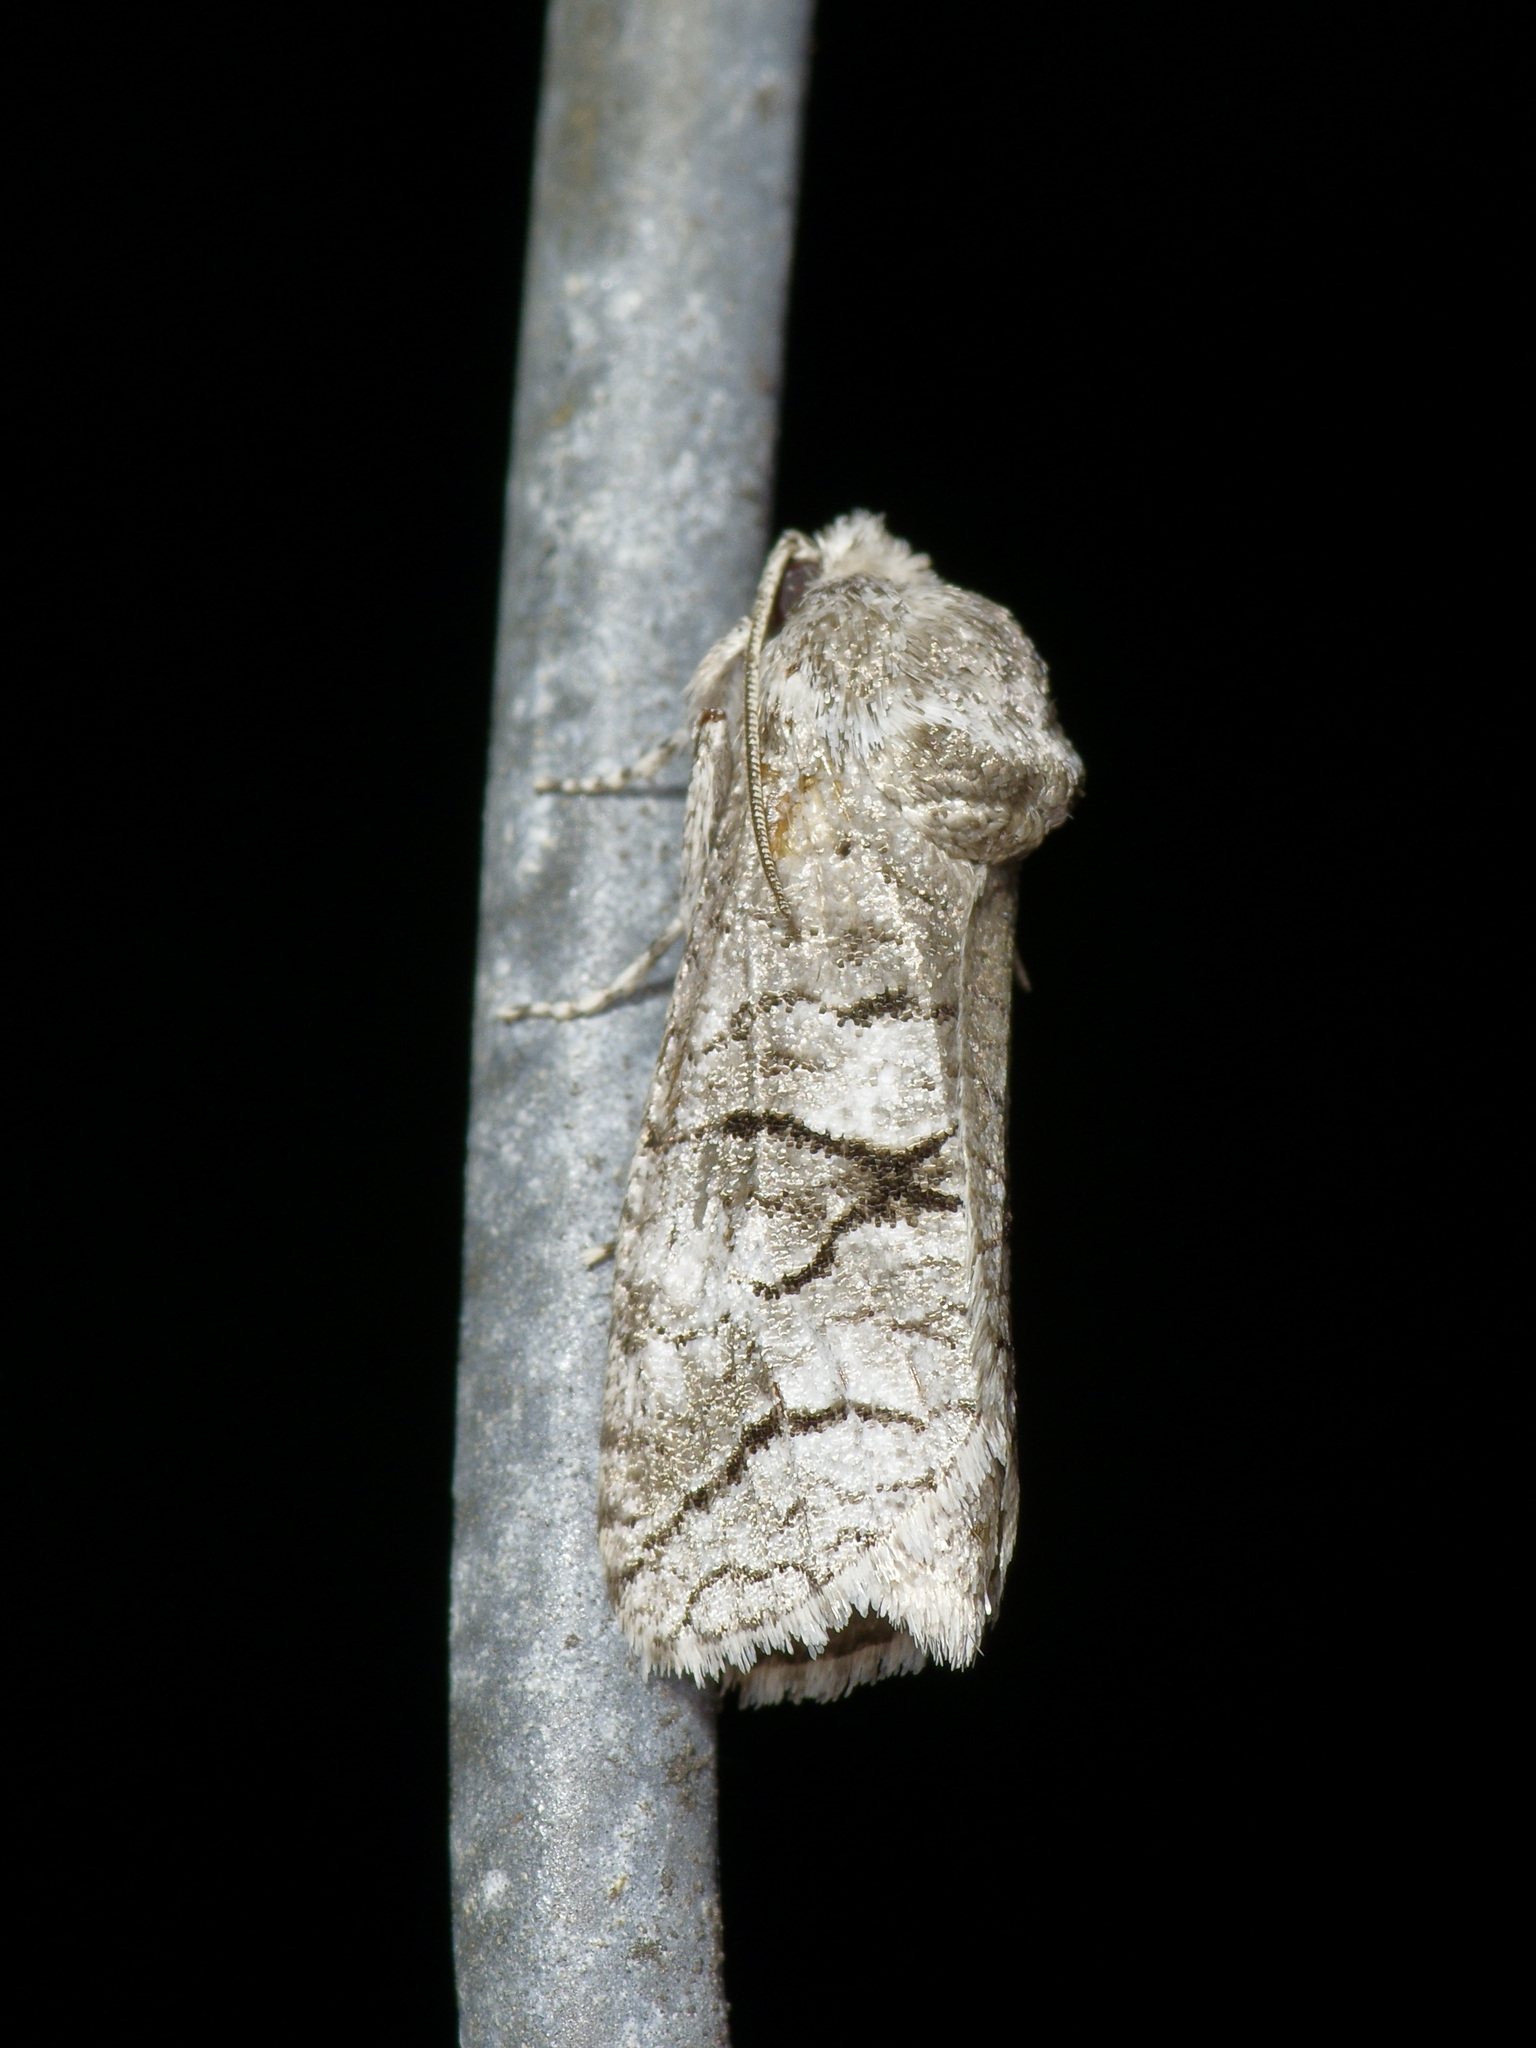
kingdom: Animalia
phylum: Arthropoda
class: Insecta
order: Lepidoptera
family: Cossidae
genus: Fania
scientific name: Fania nanus
